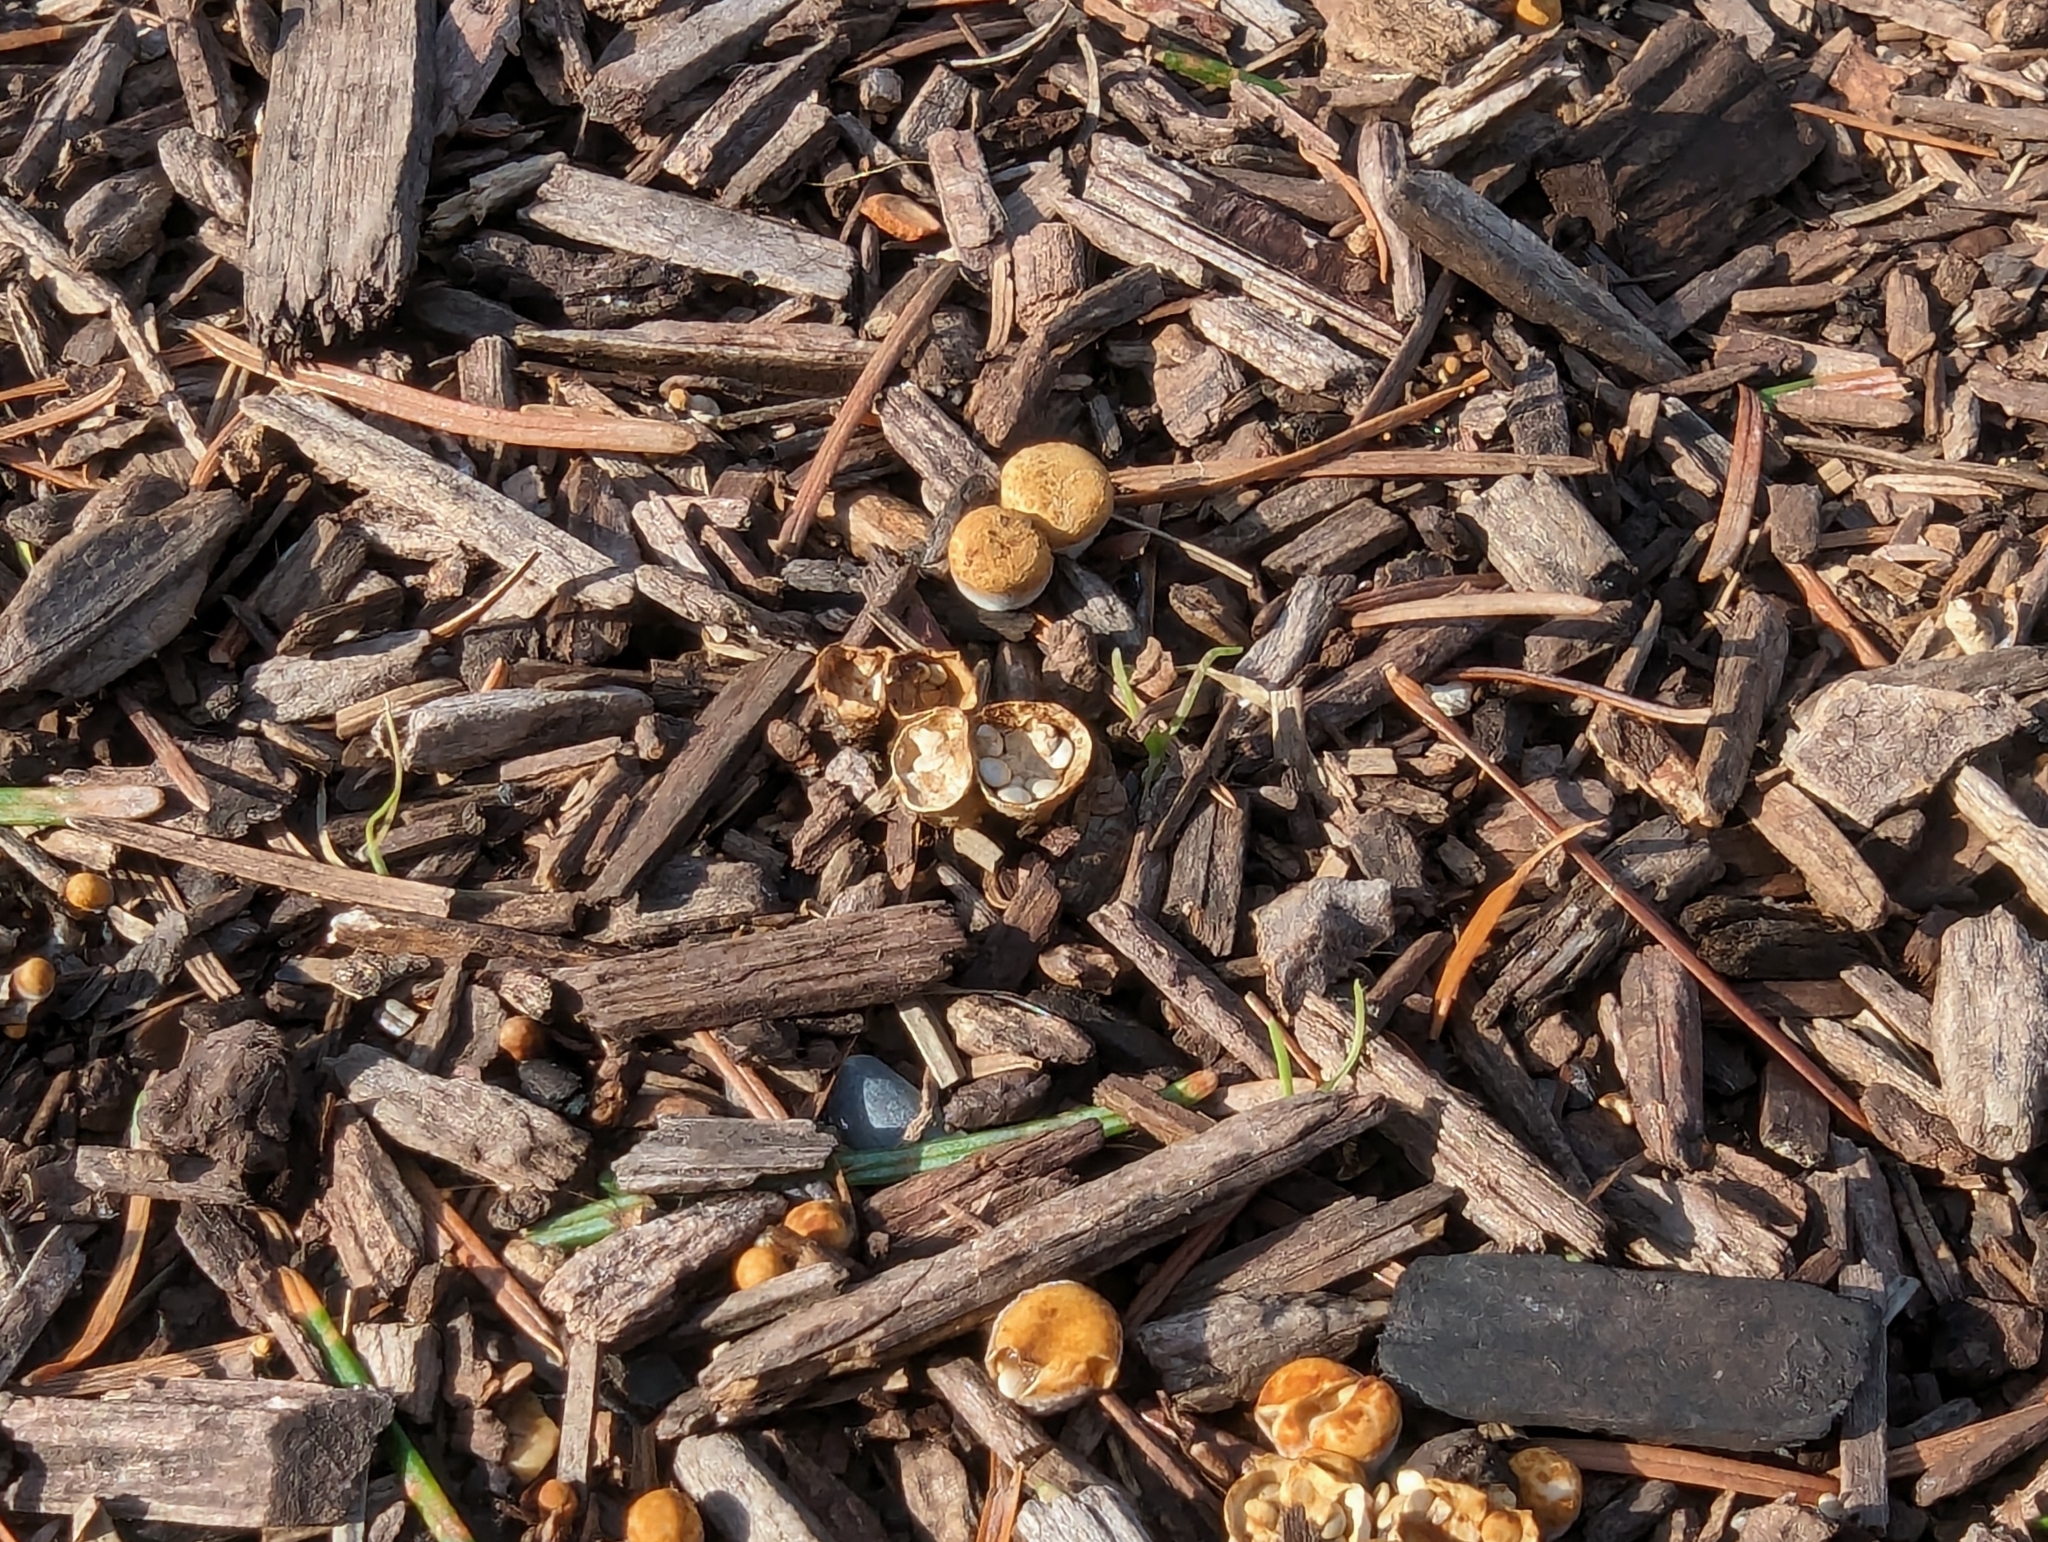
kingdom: Fungi
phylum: Basidiomycota
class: Agaricomycetes
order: Agaricales
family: Nidulariaceae
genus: Crucibulum
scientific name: Crucibulum laeve
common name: Common bird's nest
